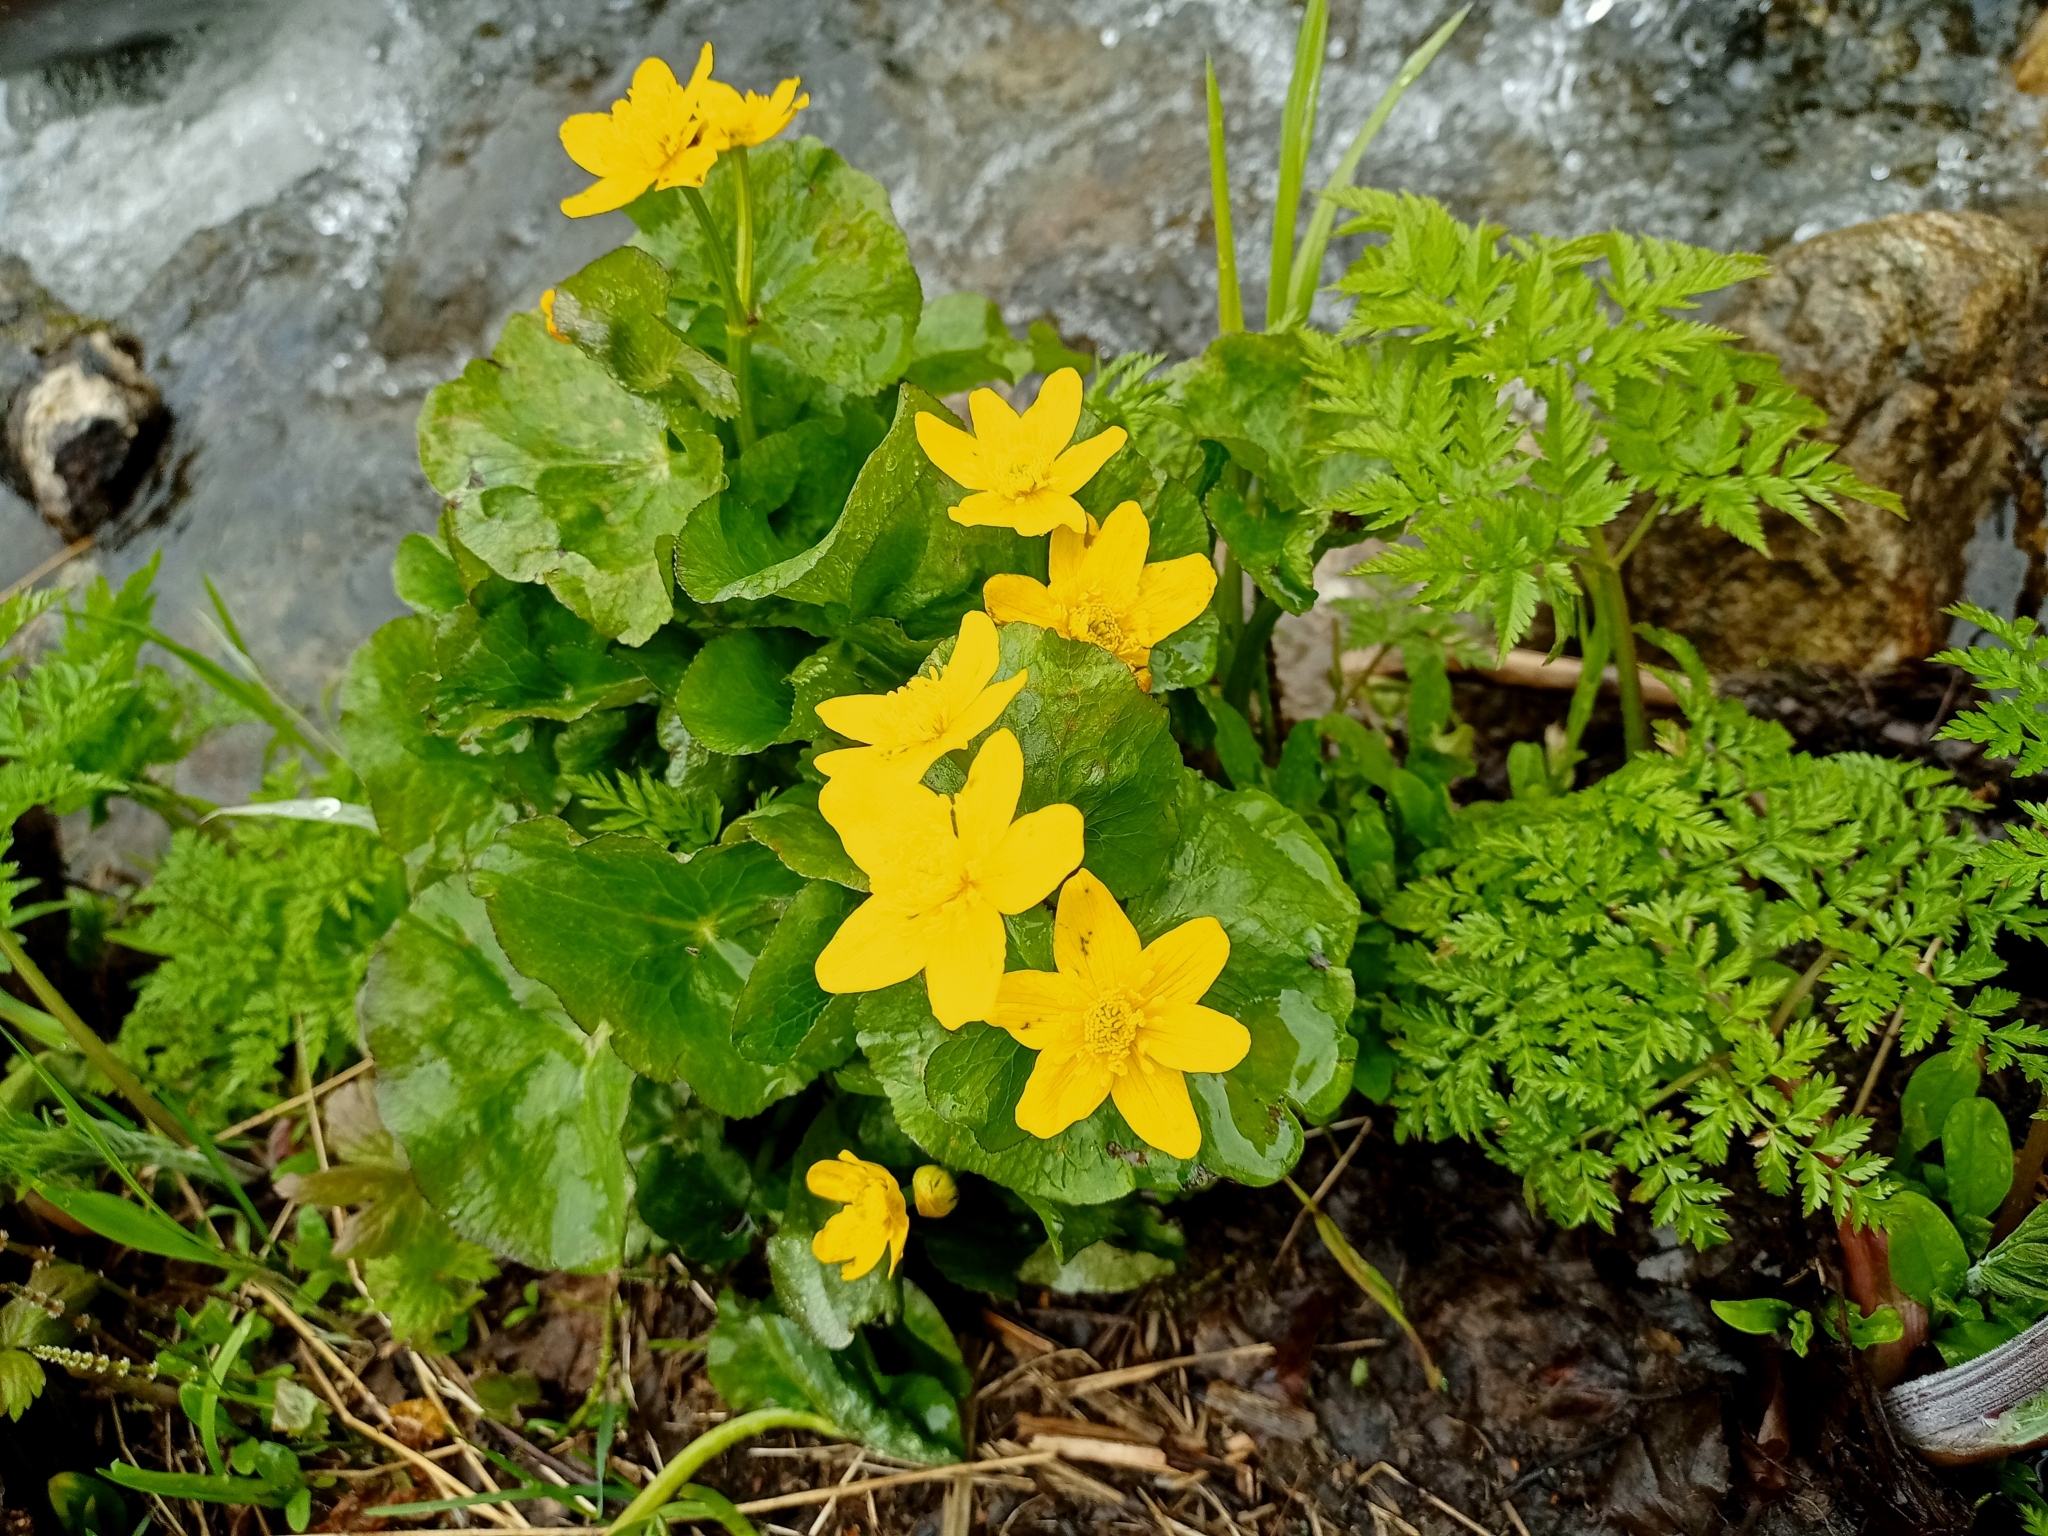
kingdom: Plantae
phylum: Tracheophyta
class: Magnoliopsida
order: Ranunculales
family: Ranunculaceae
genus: Caltha
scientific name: Caltha palustris
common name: Marsh marigold
